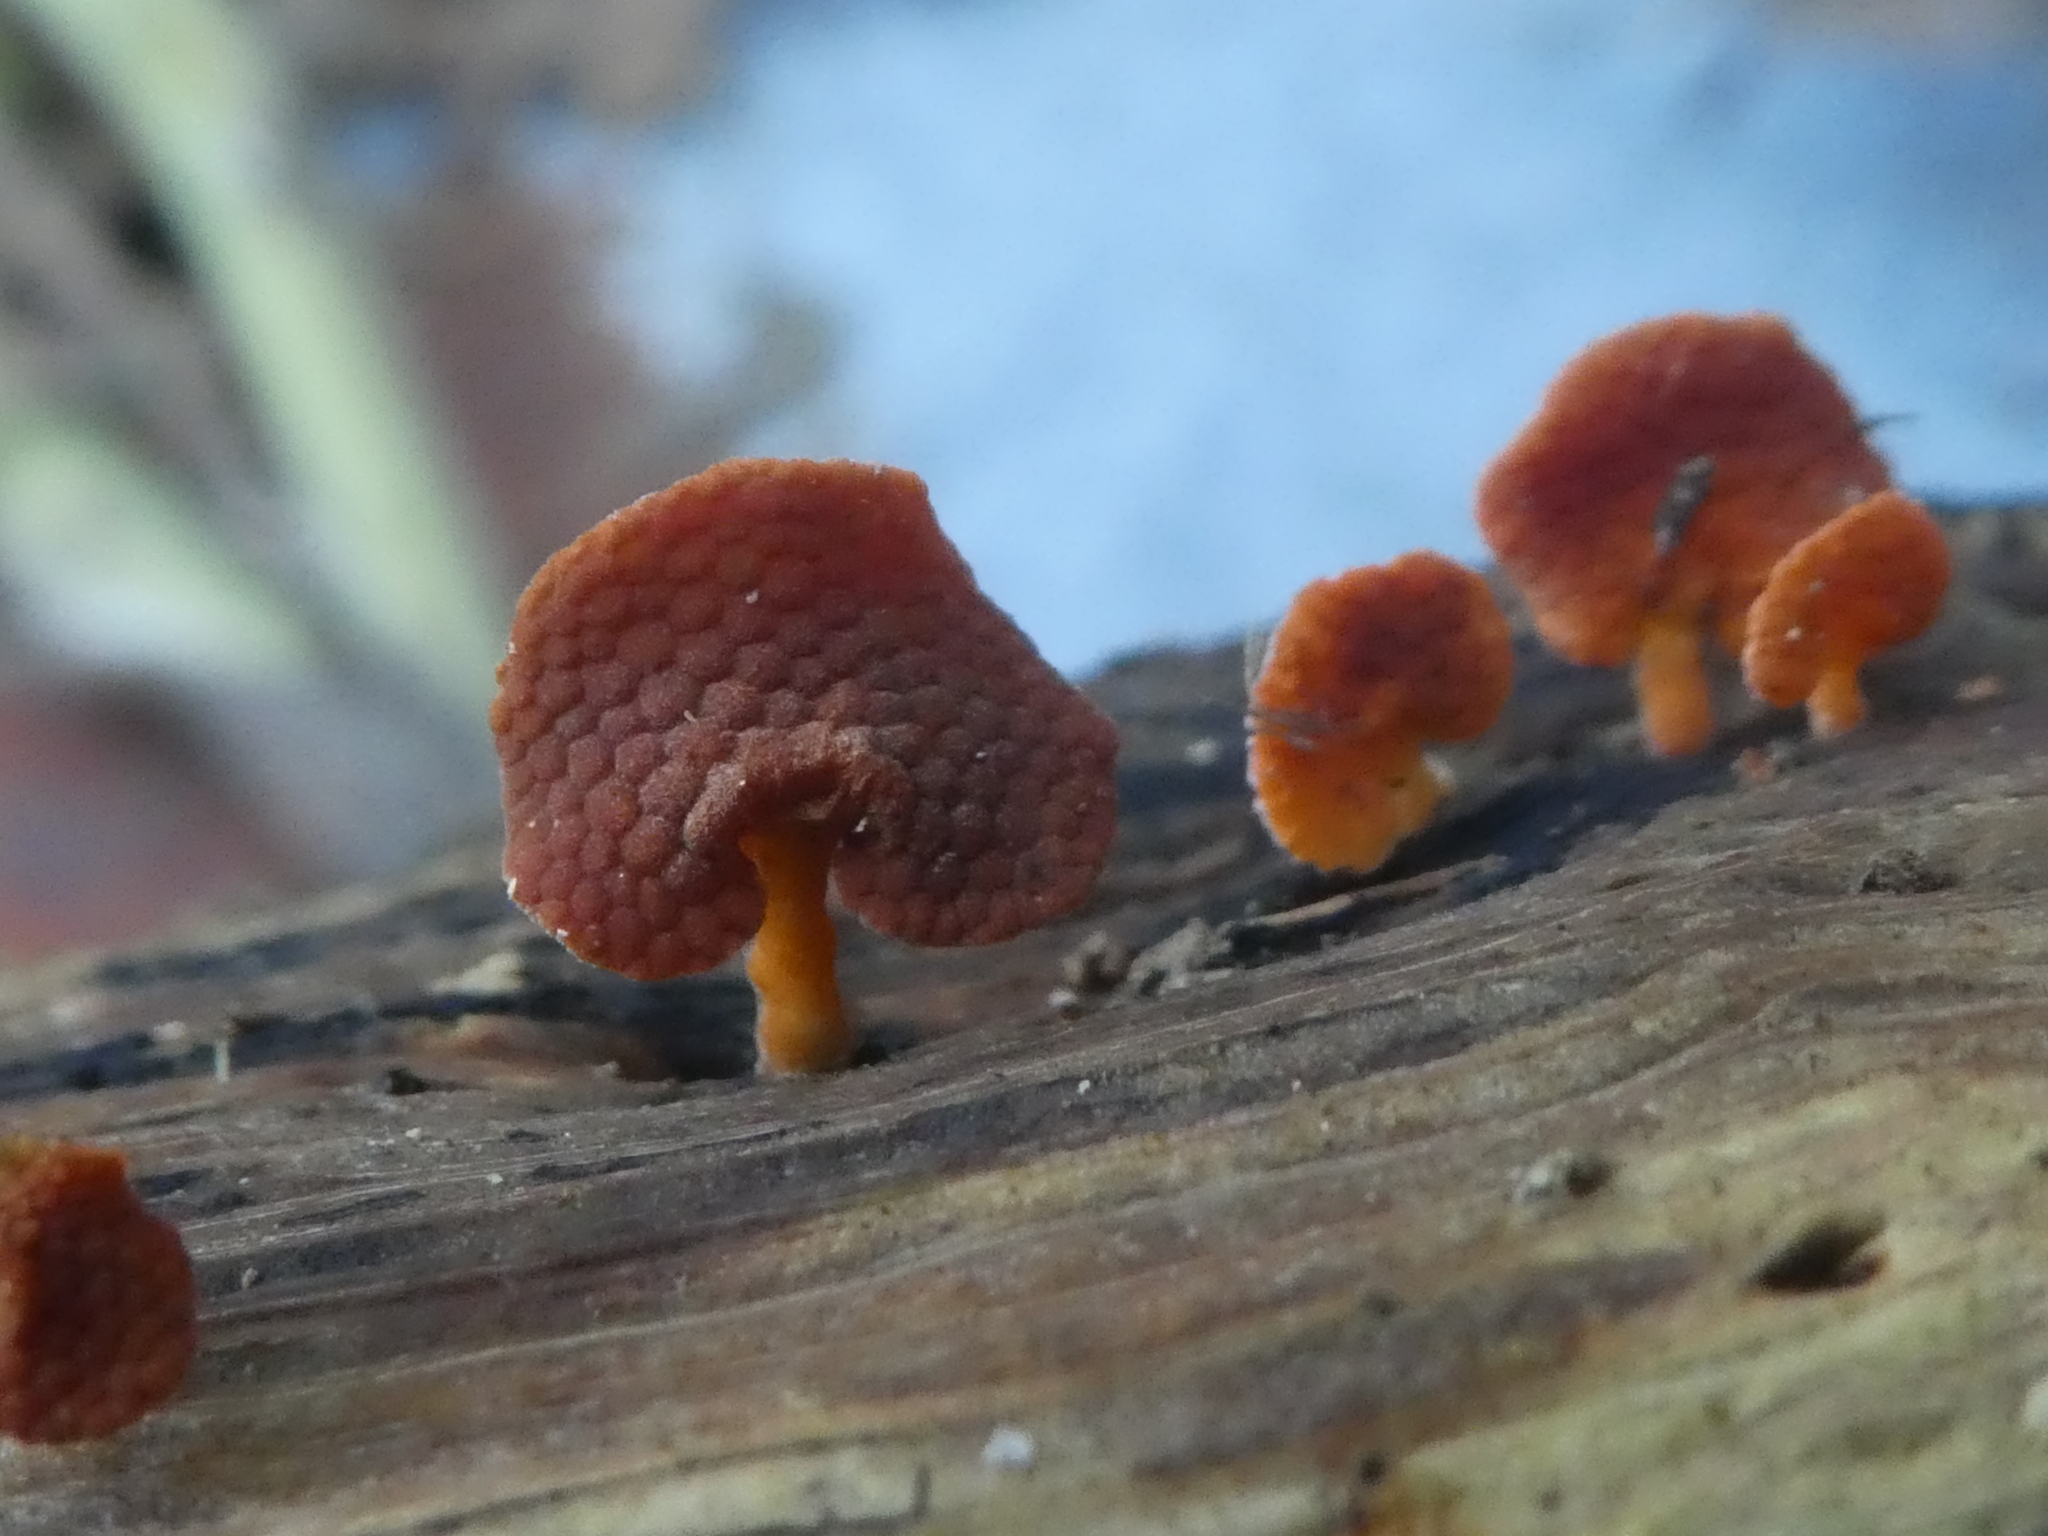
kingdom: Fungi
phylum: Basidiomycota
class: Agaricomycetes
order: Agaricales
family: Mycenaceae
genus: Favolaschia
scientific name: Favolaschia claudopus
